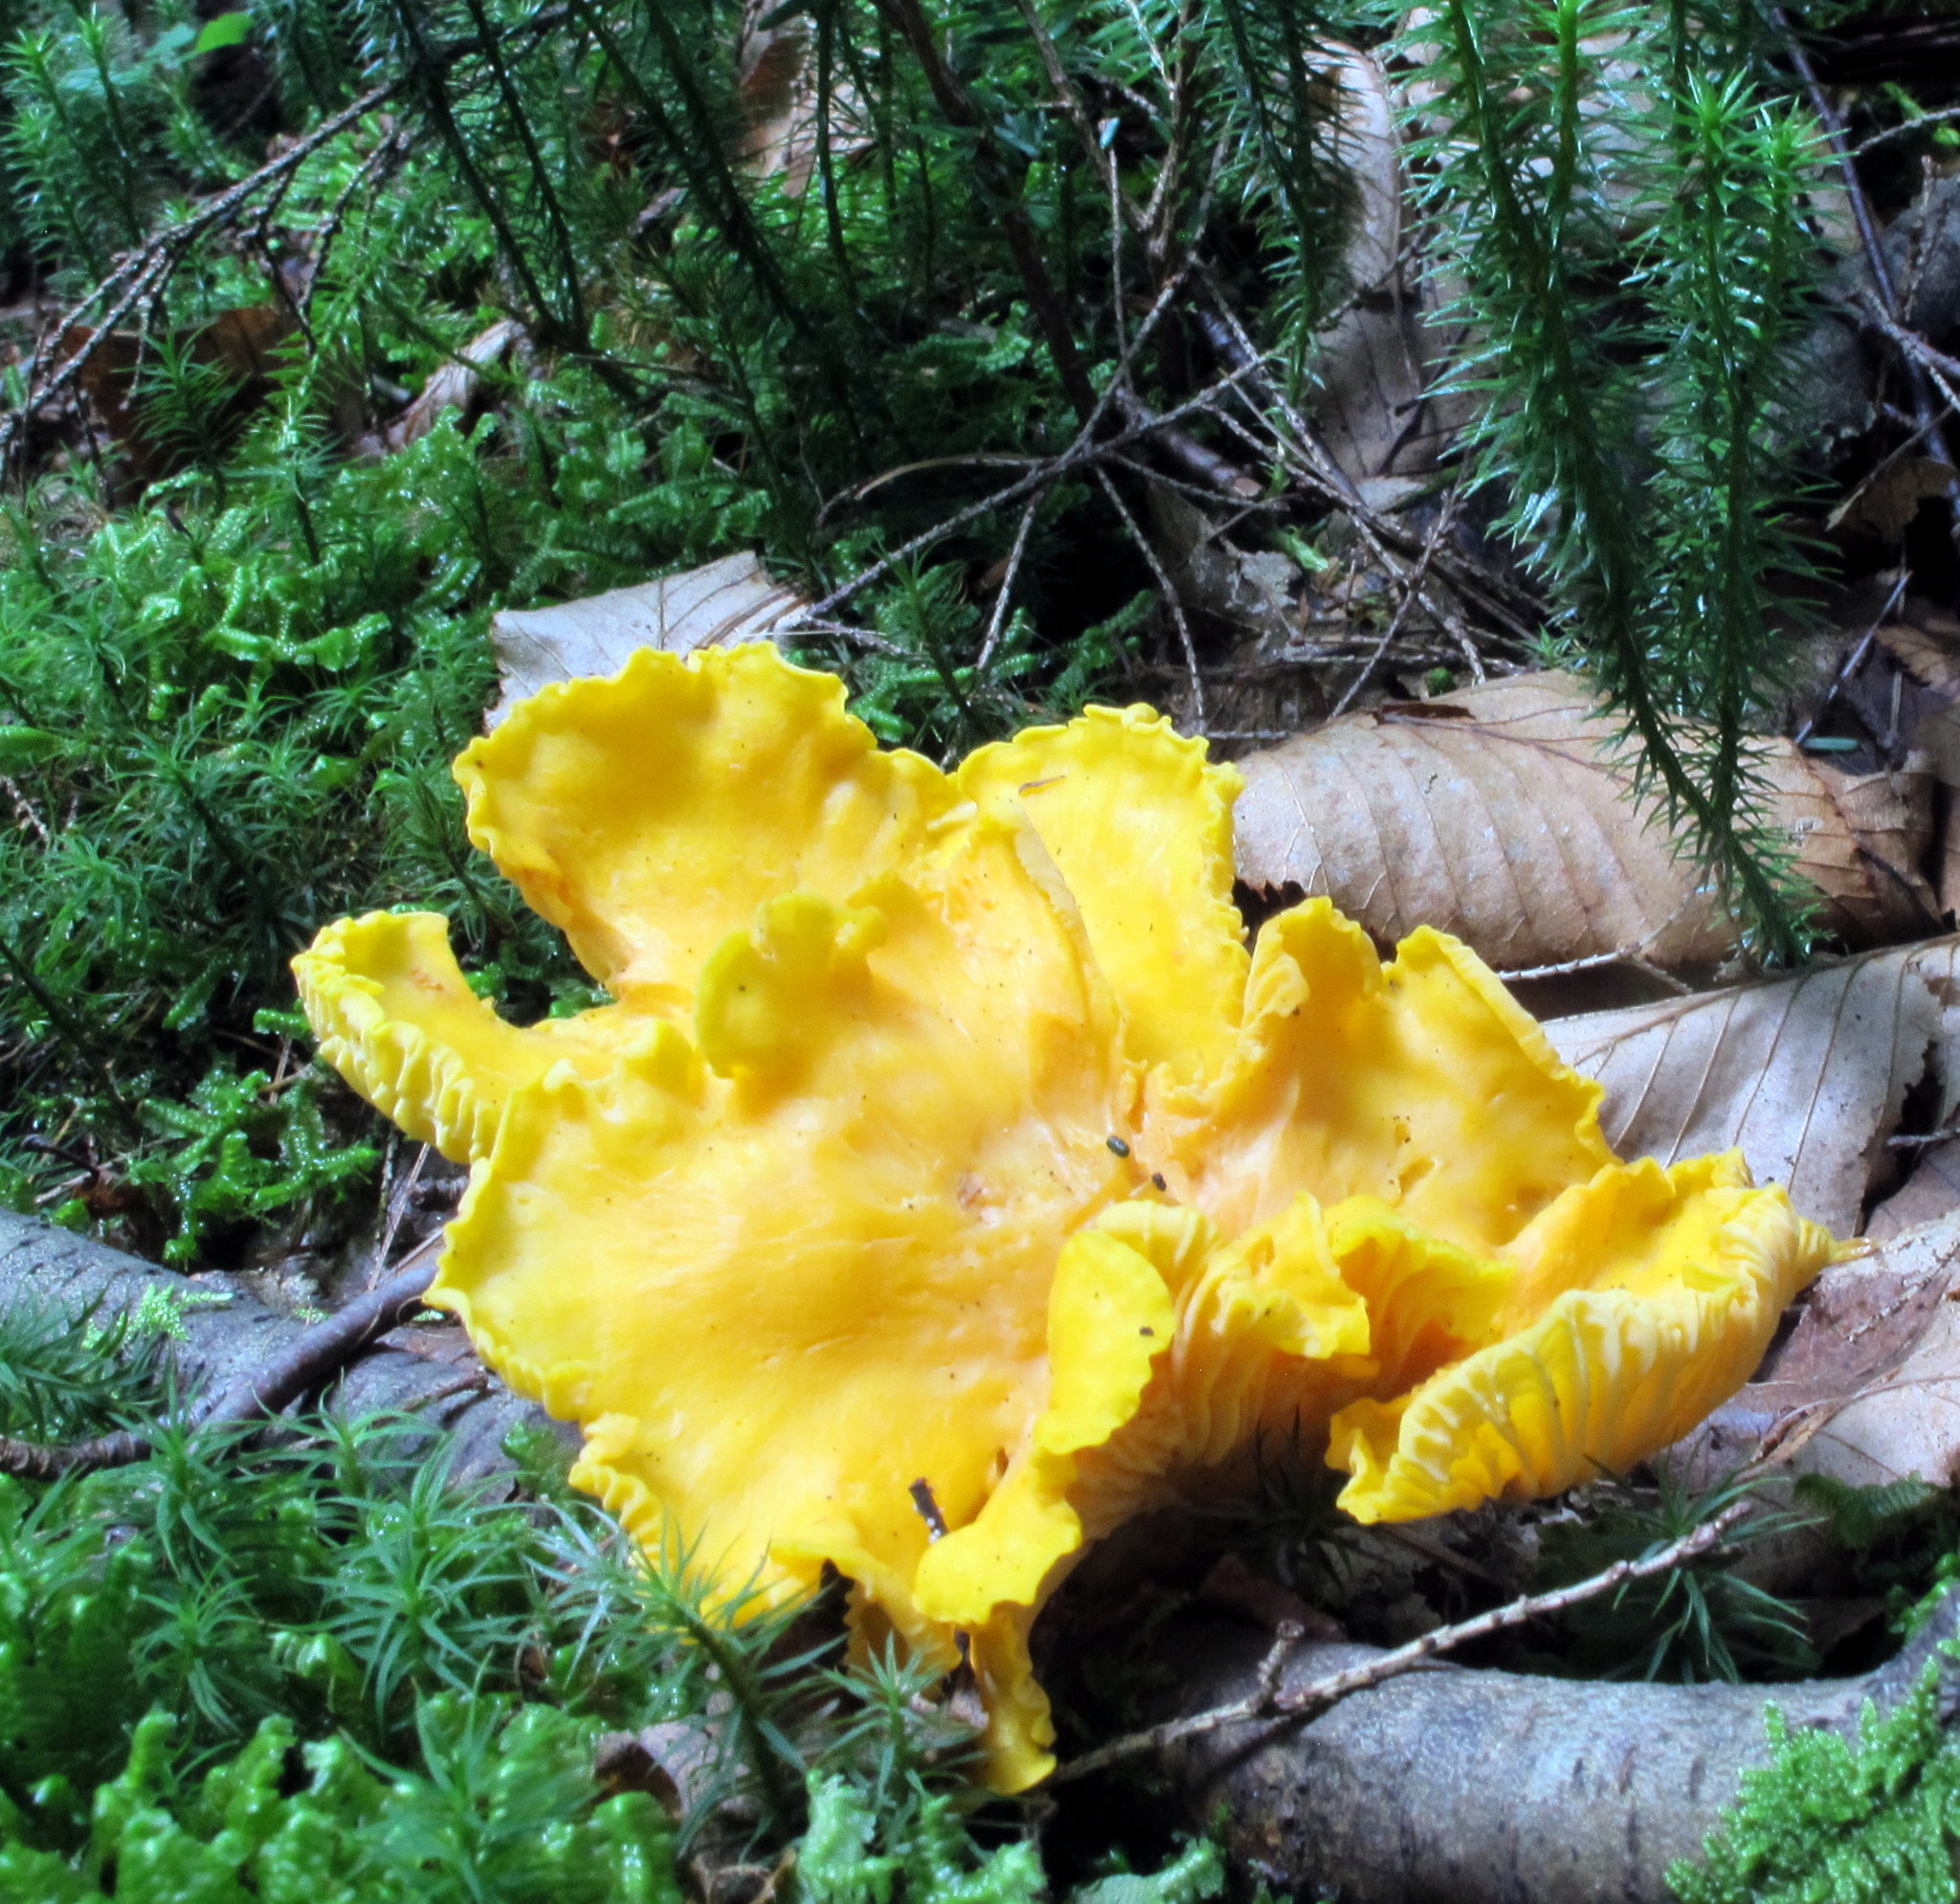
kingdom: Fungi
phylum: Basidiomycota
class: Agaricomycetes
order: Cantharellales
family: Hydnaceae
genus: Cantharellus
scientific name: Cantharellus phasmatis
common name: Ghost chanterelle
